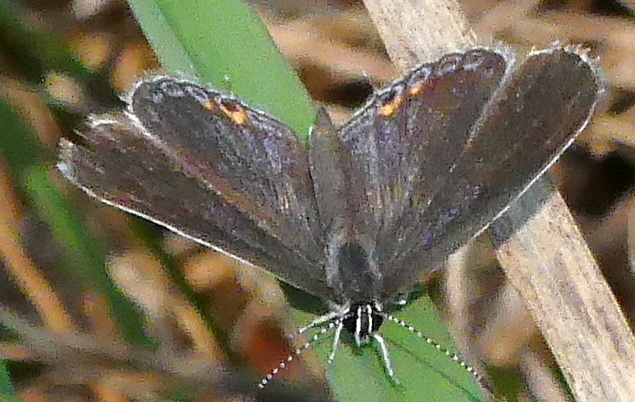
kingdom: Animalia
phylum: Arthropoda
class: Insecta
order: Lepidoptera
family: Lycaenidae
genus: Elkalyce
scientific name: Elkalyce comyntas
